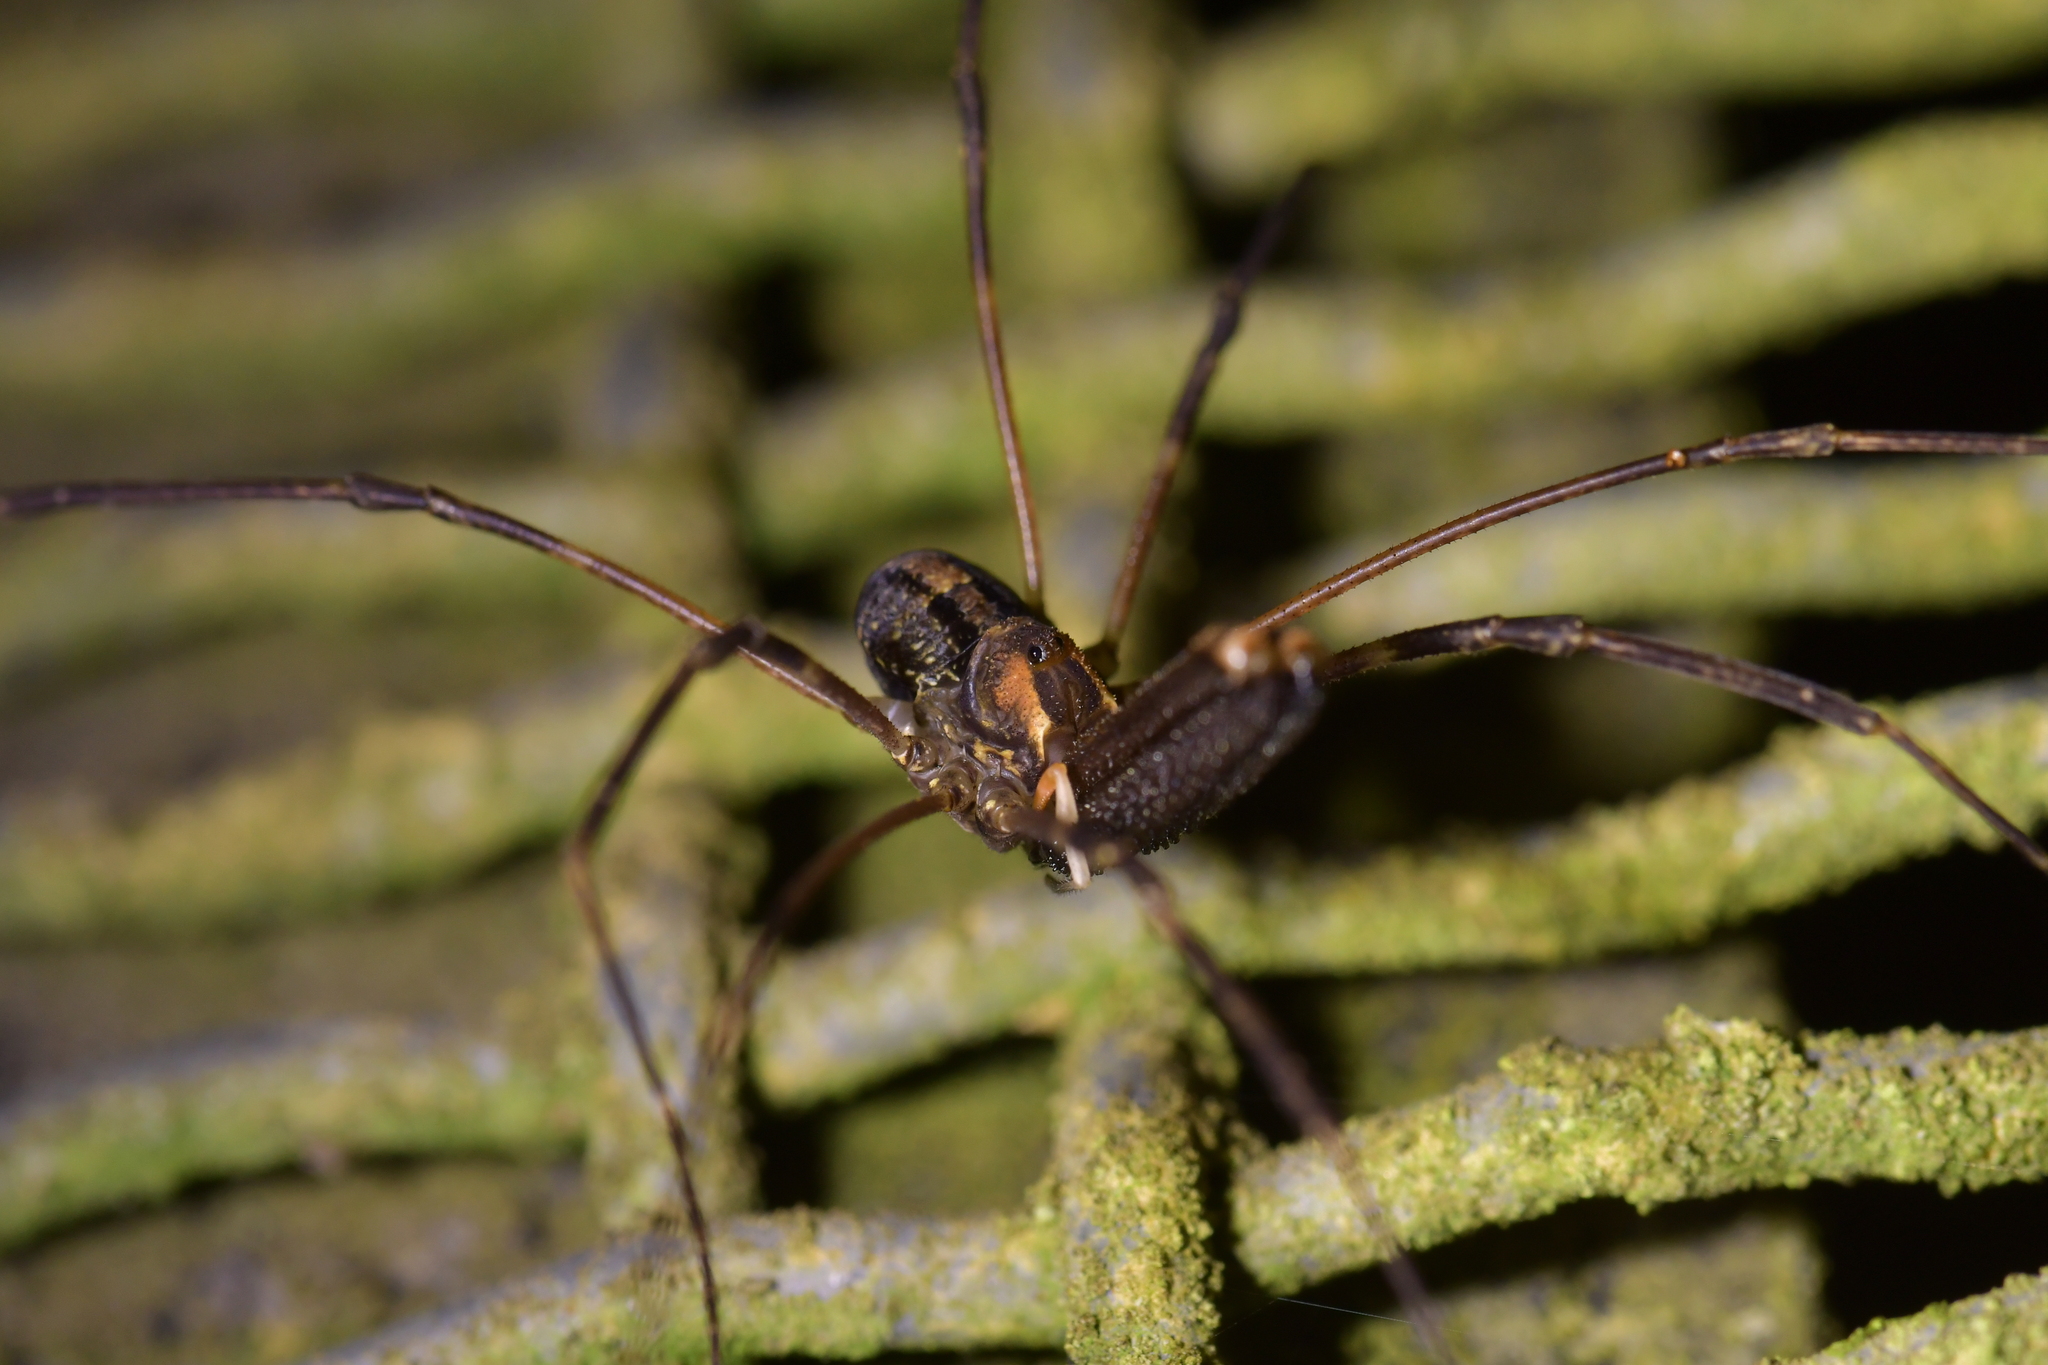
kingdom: Animalia
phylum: Arthropoda
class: Arachnida
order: Opiliones
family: Neopilionidae
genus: Forsteropsalis
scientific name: Forsteropsalis inconstans
